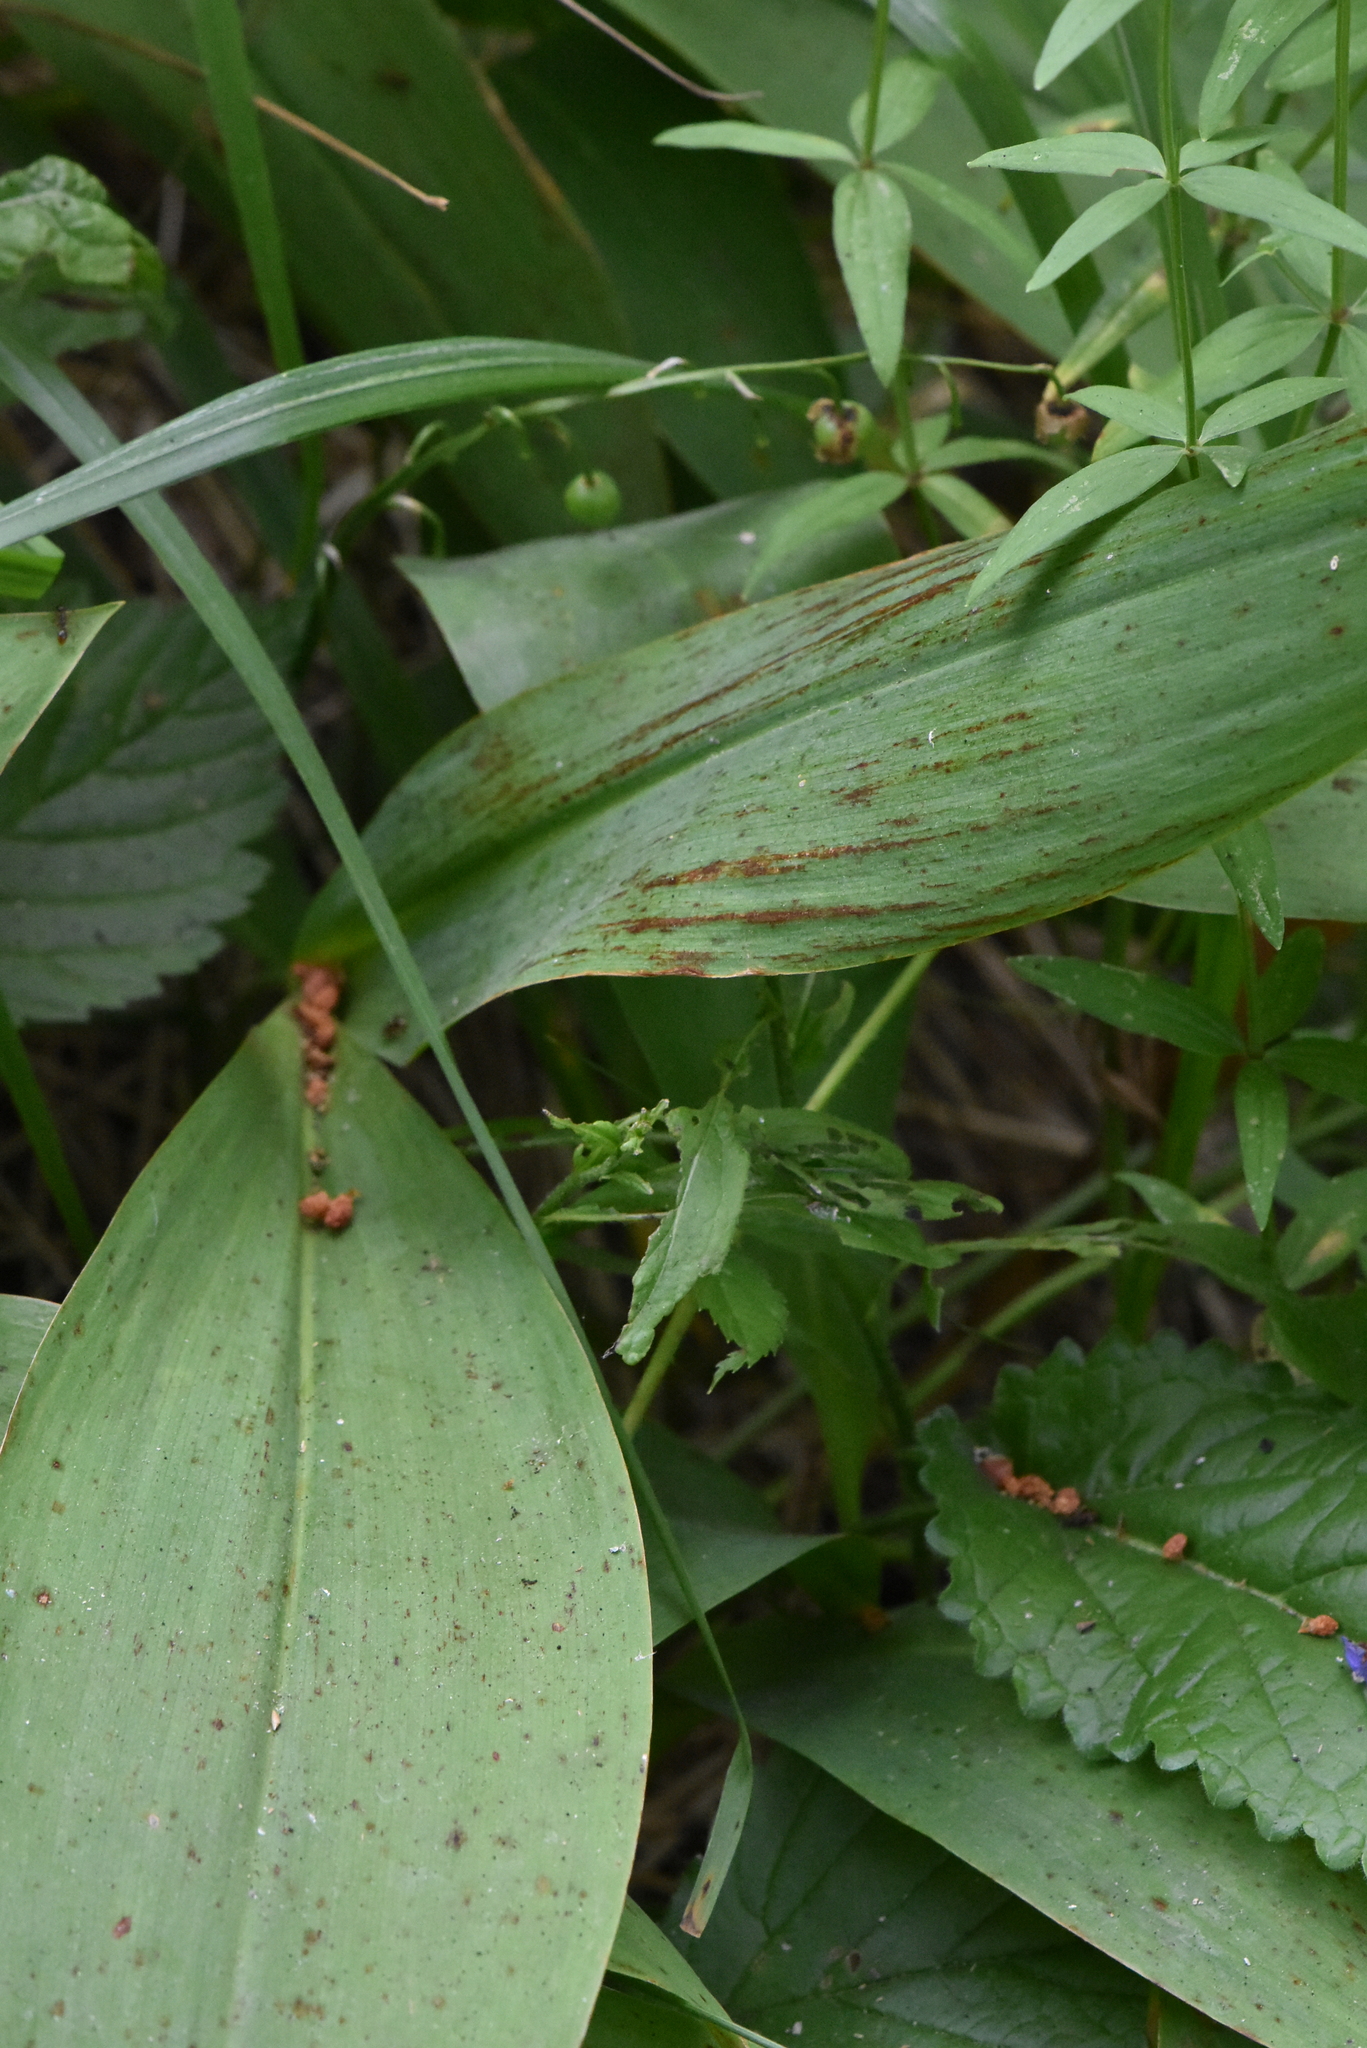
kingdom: Plantae
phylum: Tracheophyta
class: Liliopsida
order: Asparagales
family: Asparagaceae
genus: Convallaria
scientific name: Convallaria majalis
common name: Lily-of-the-valley
